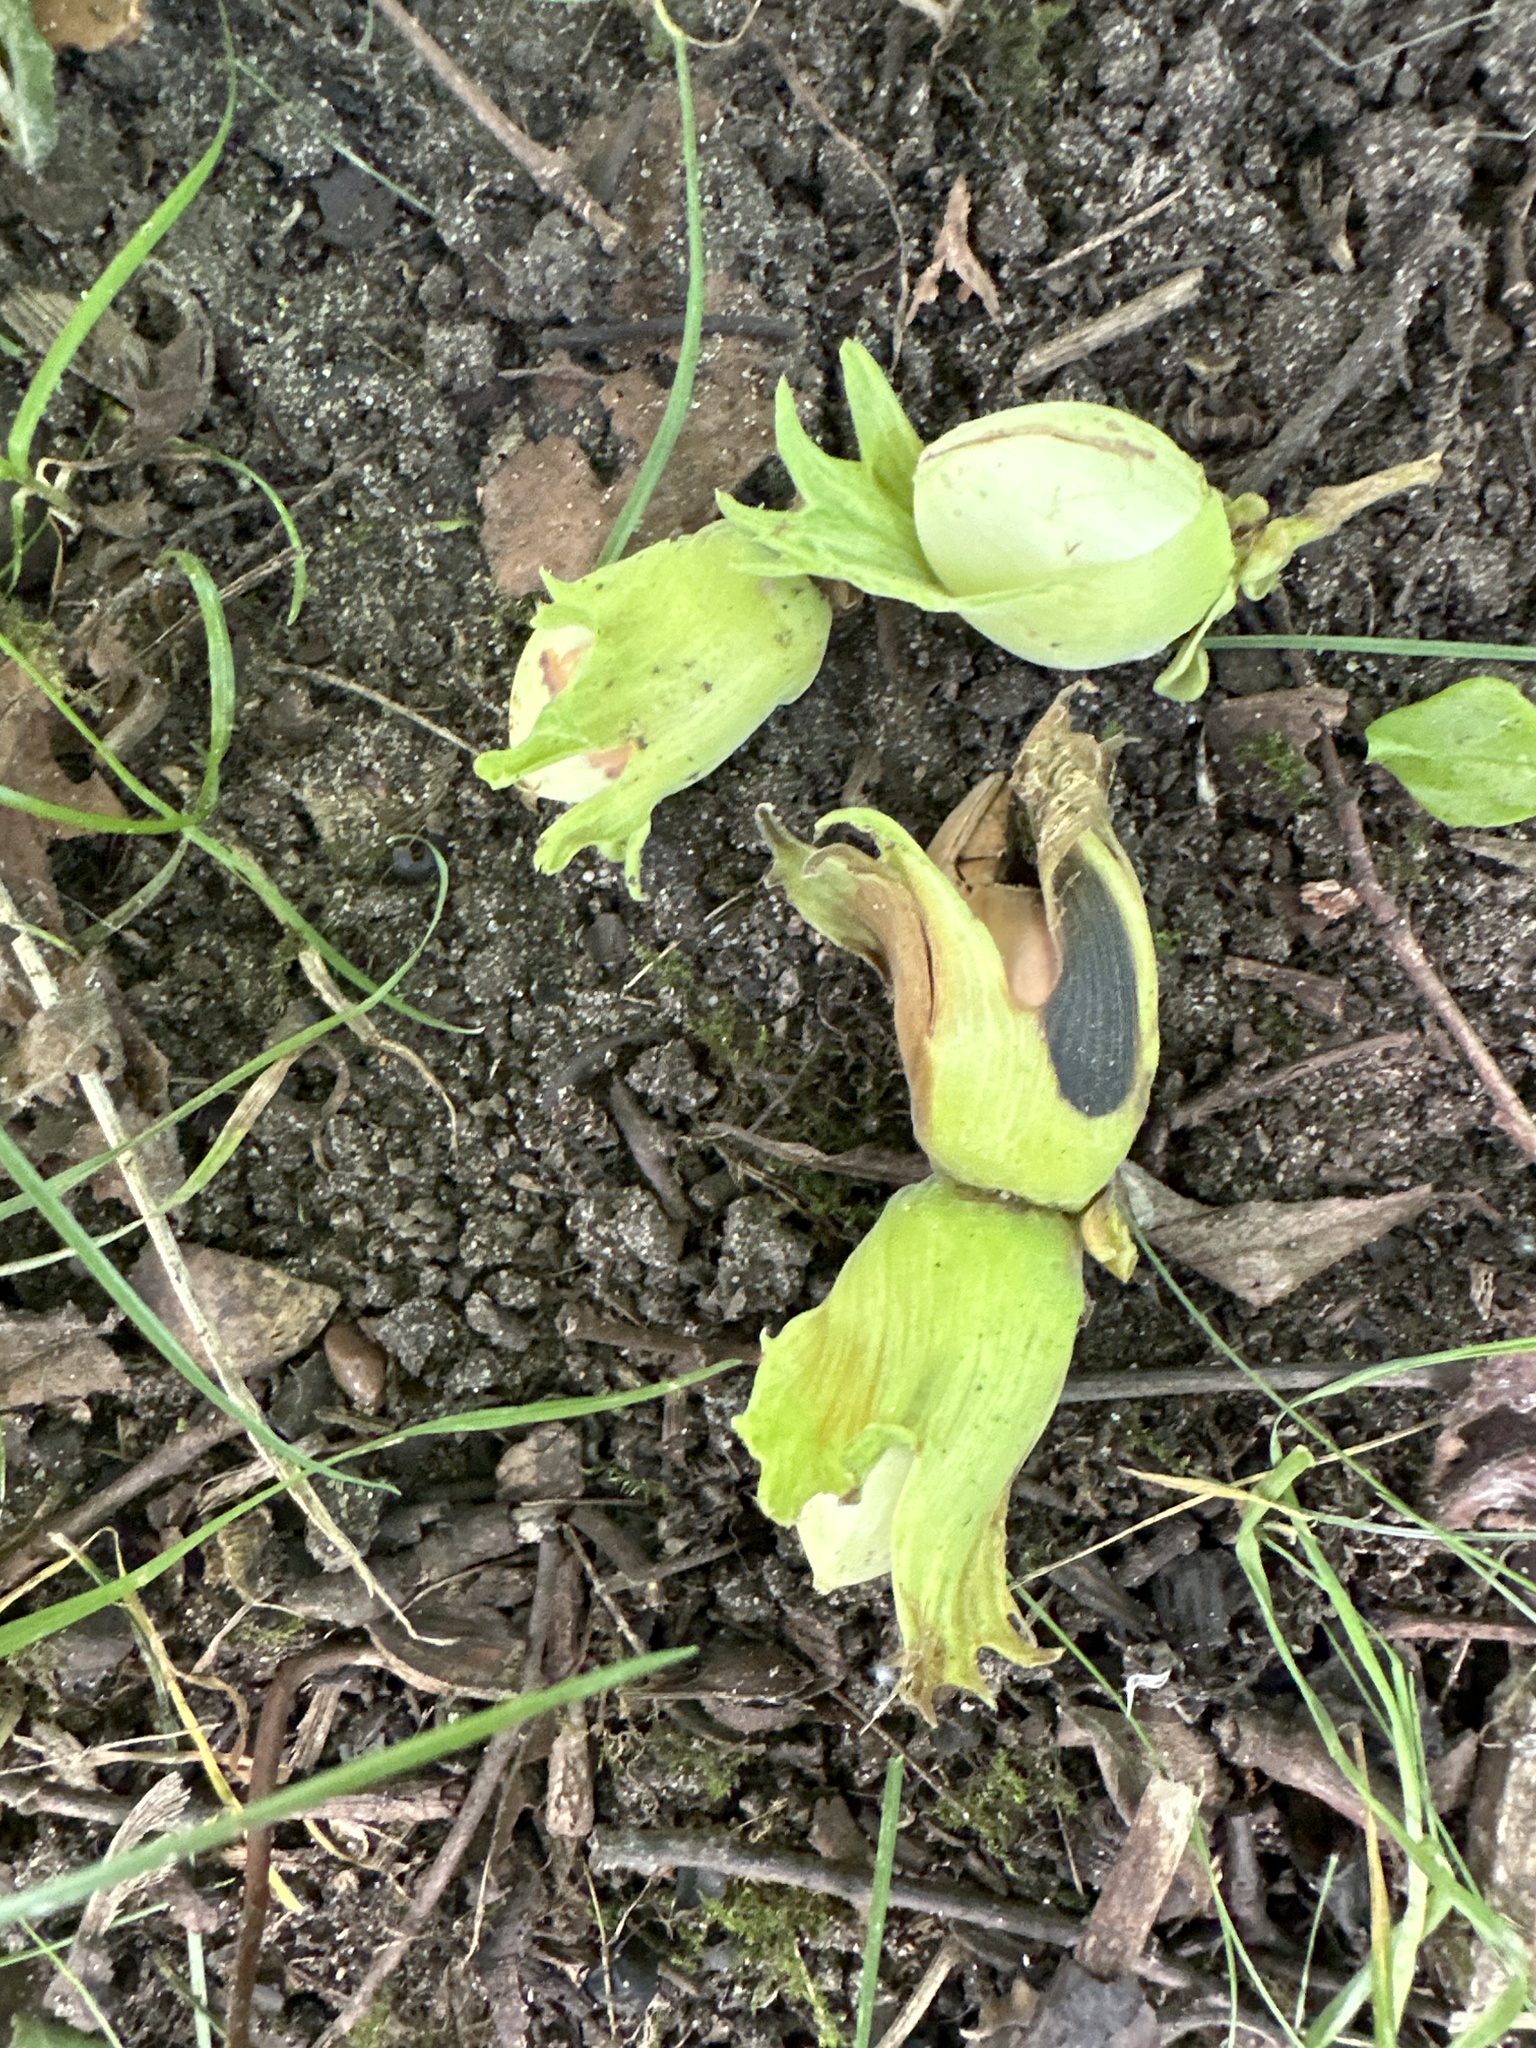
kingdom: Plantae
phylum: Tracheophyta
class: Magnoliopsida
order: Fagales
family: Betulaceae
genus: Corylus
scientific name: Corylus avellana
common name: European hazel
